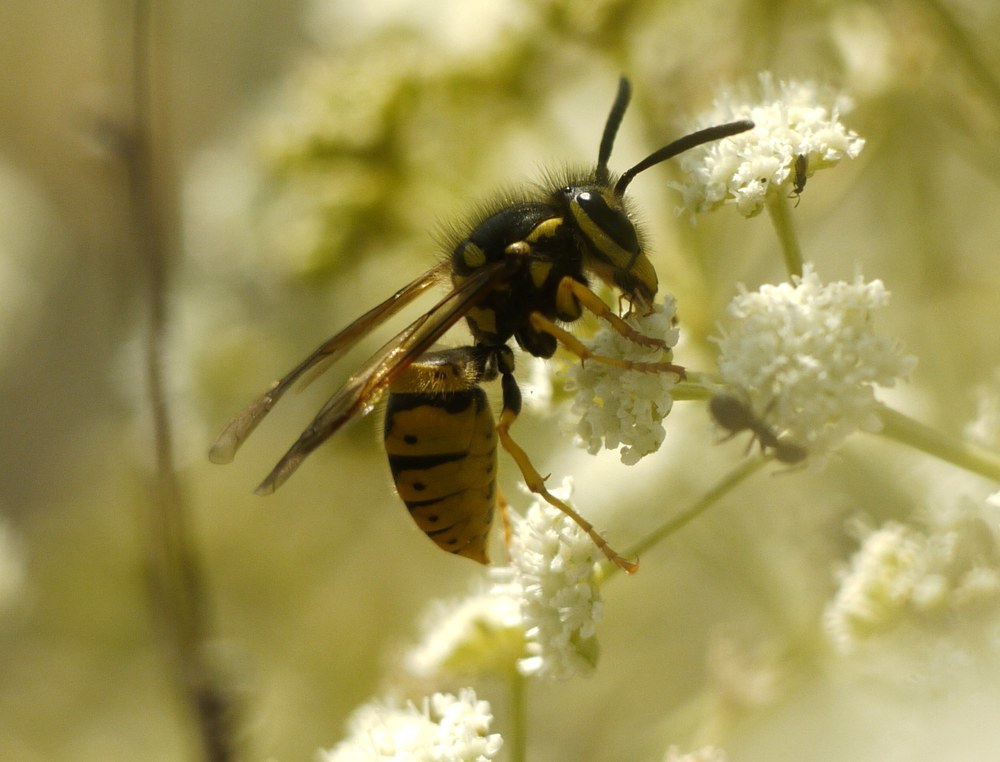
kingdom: Animalia
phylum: Arthropoda
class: Insecta
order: Hymenoptera
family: Vespidae
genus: Vespula
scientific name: Vespula germanica
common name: German wasp
